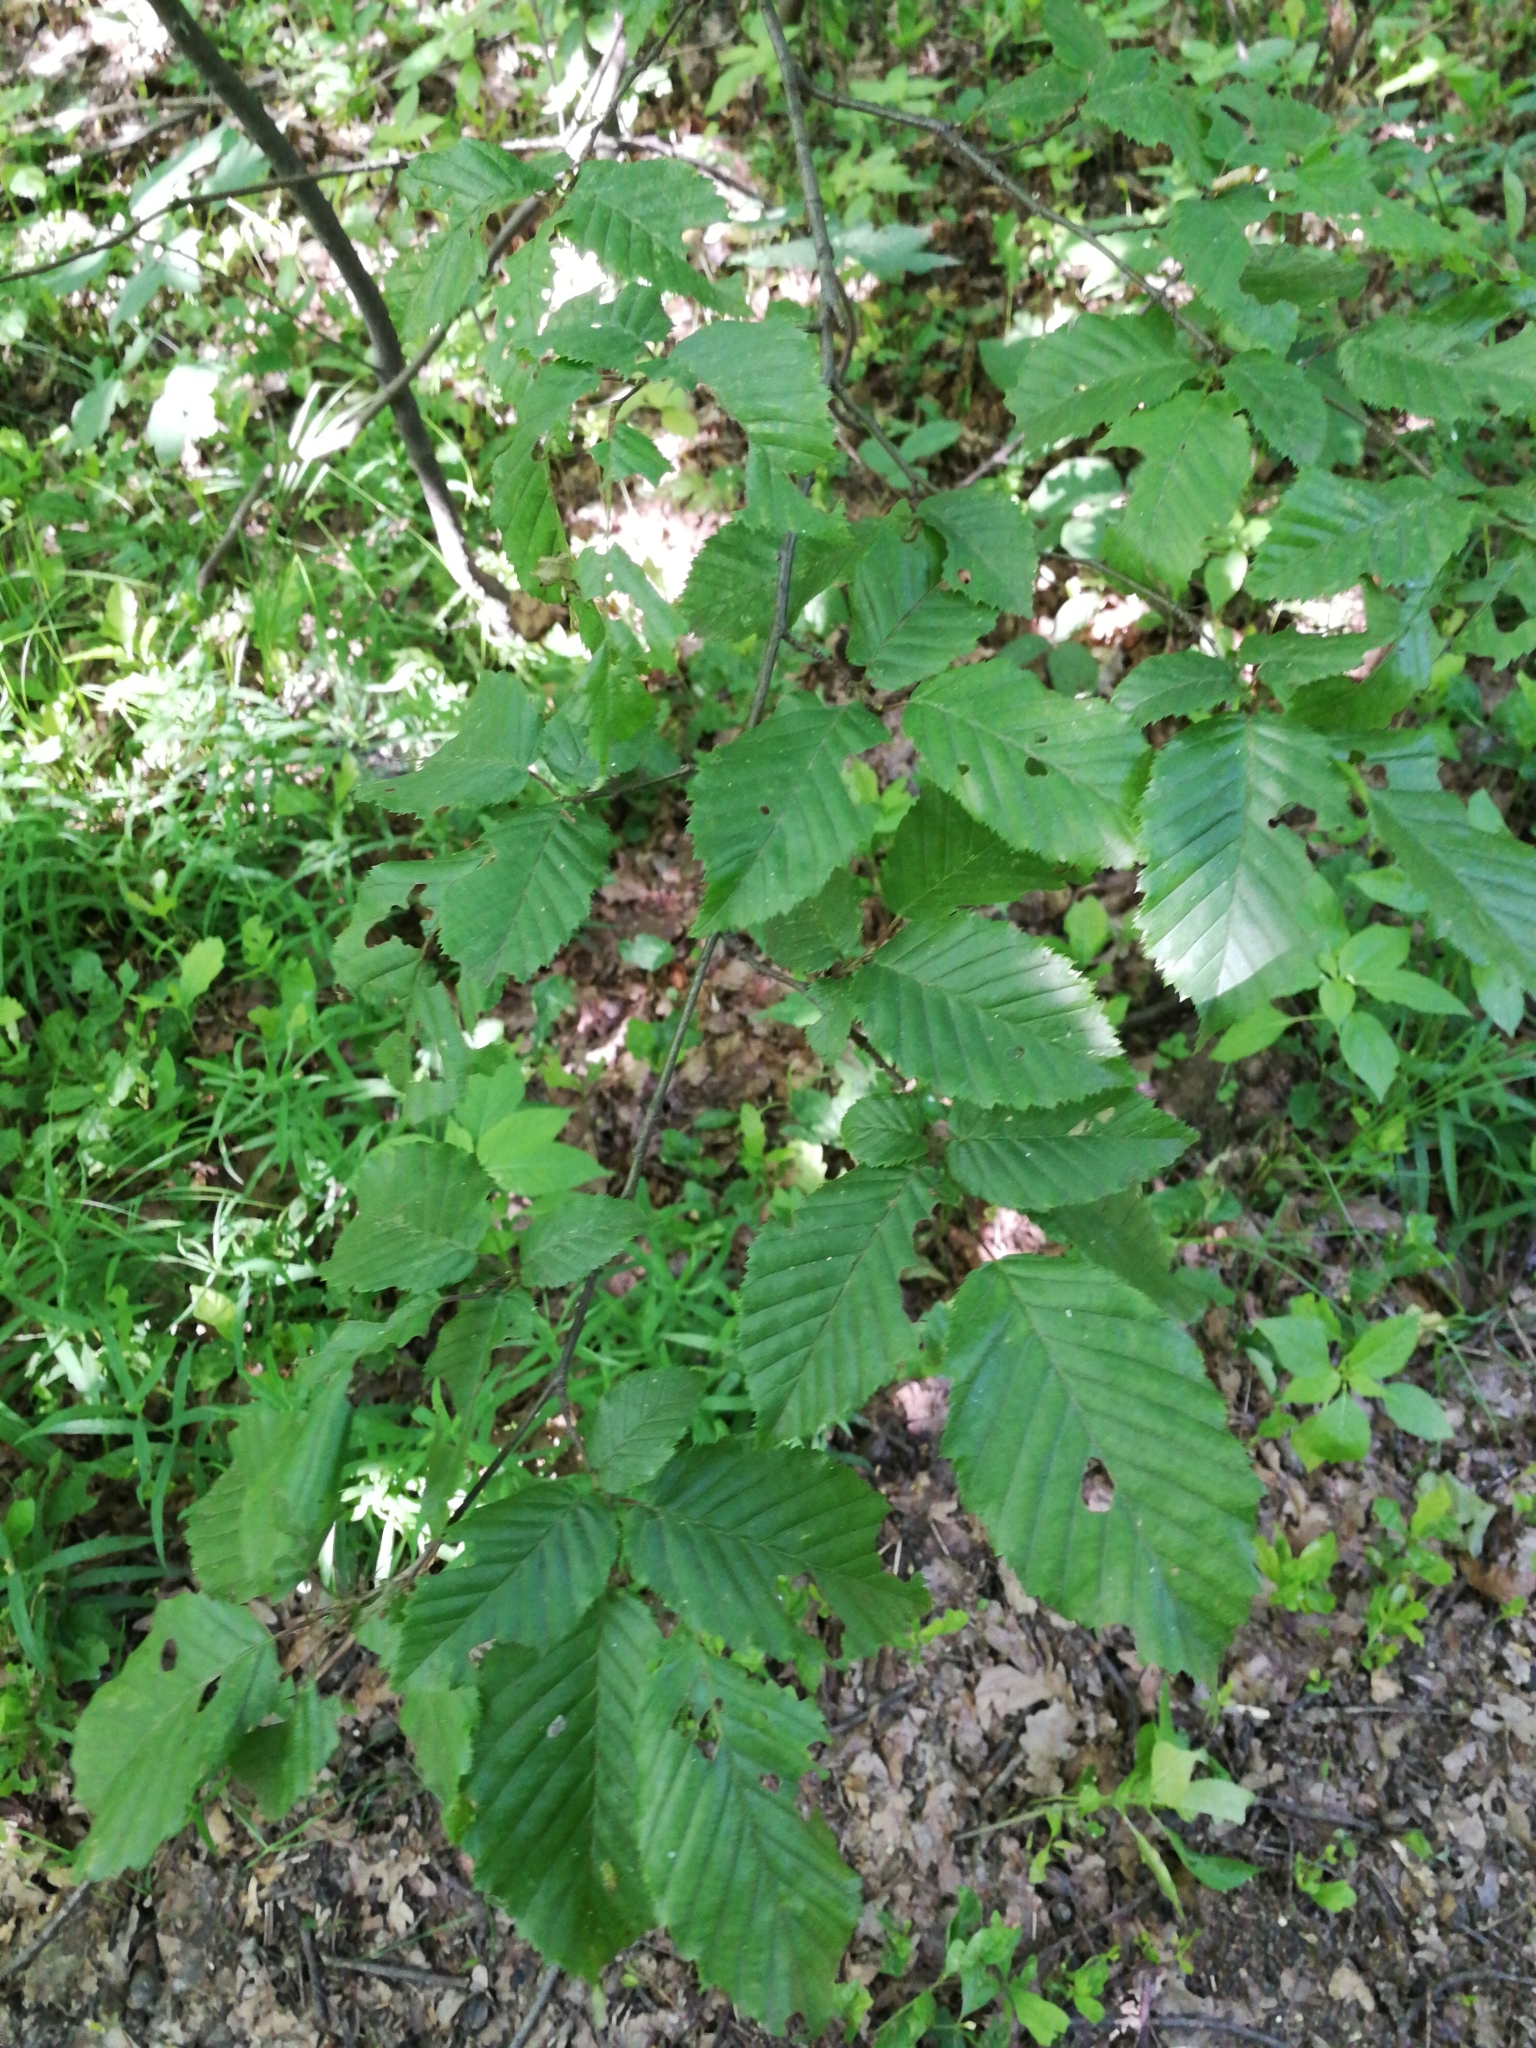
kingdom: Plantae
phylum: Tracheophyta
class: Magnoliopsida
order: Fagales
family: Betulaceae
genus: Carpinus
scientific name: Carpinus betulus
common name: Hornbeam
